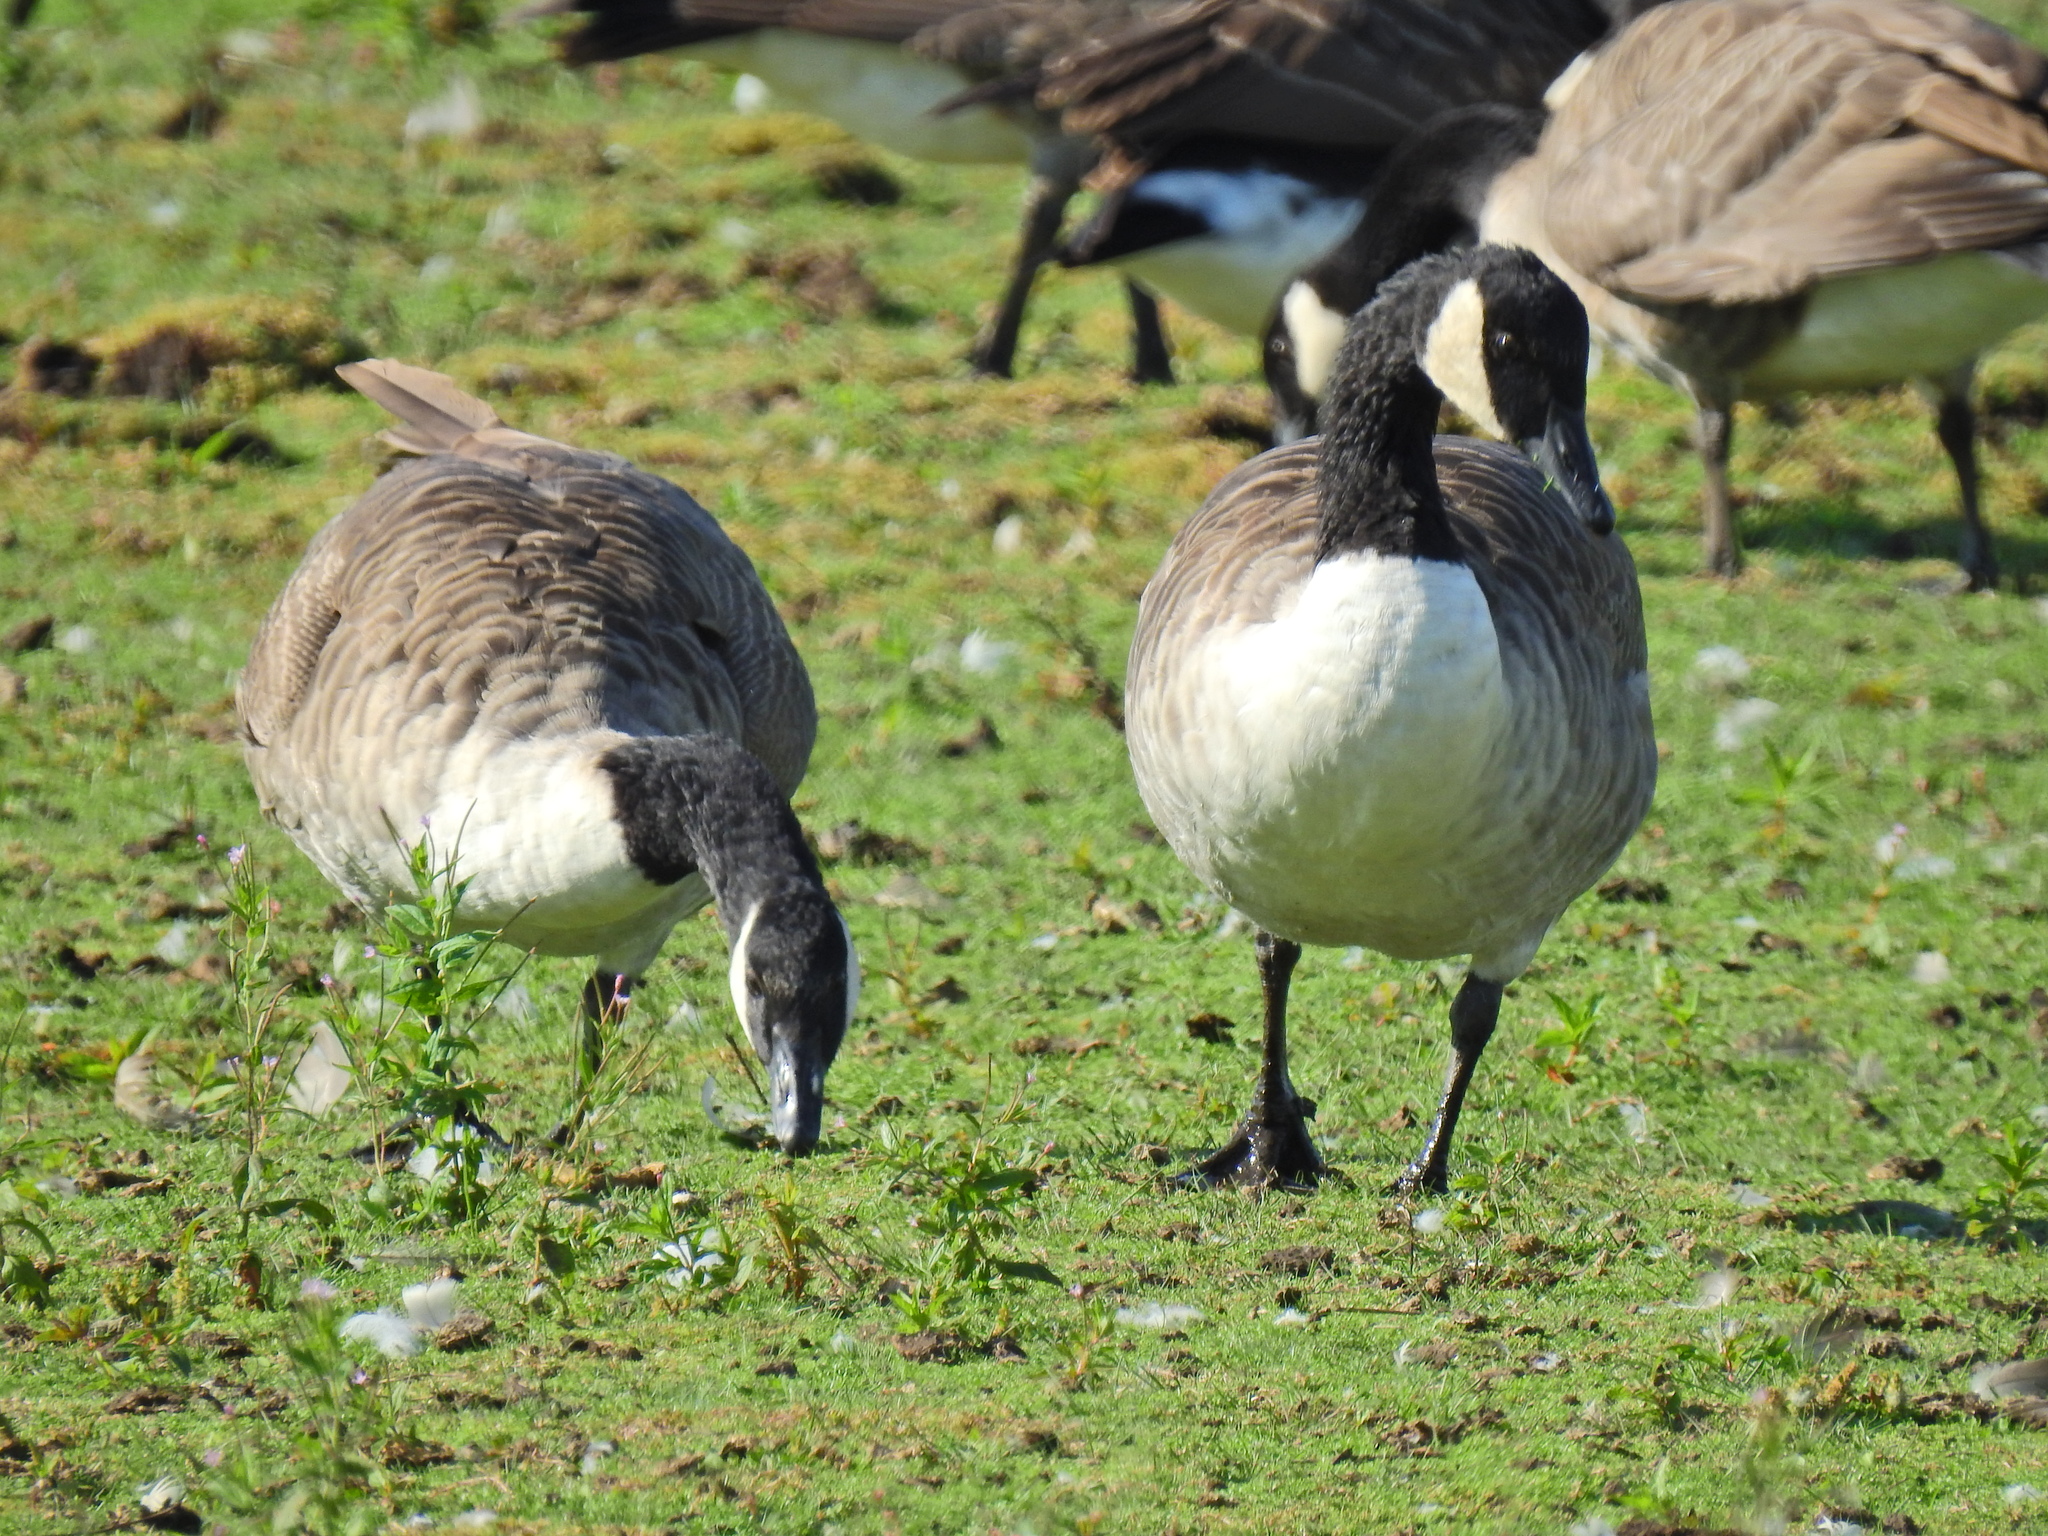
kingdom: Animalia
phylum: Chordata
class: Aves
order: Anseriformes
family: Anatidae
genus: Branta
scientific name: Branta canadensis
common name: Canada goose
